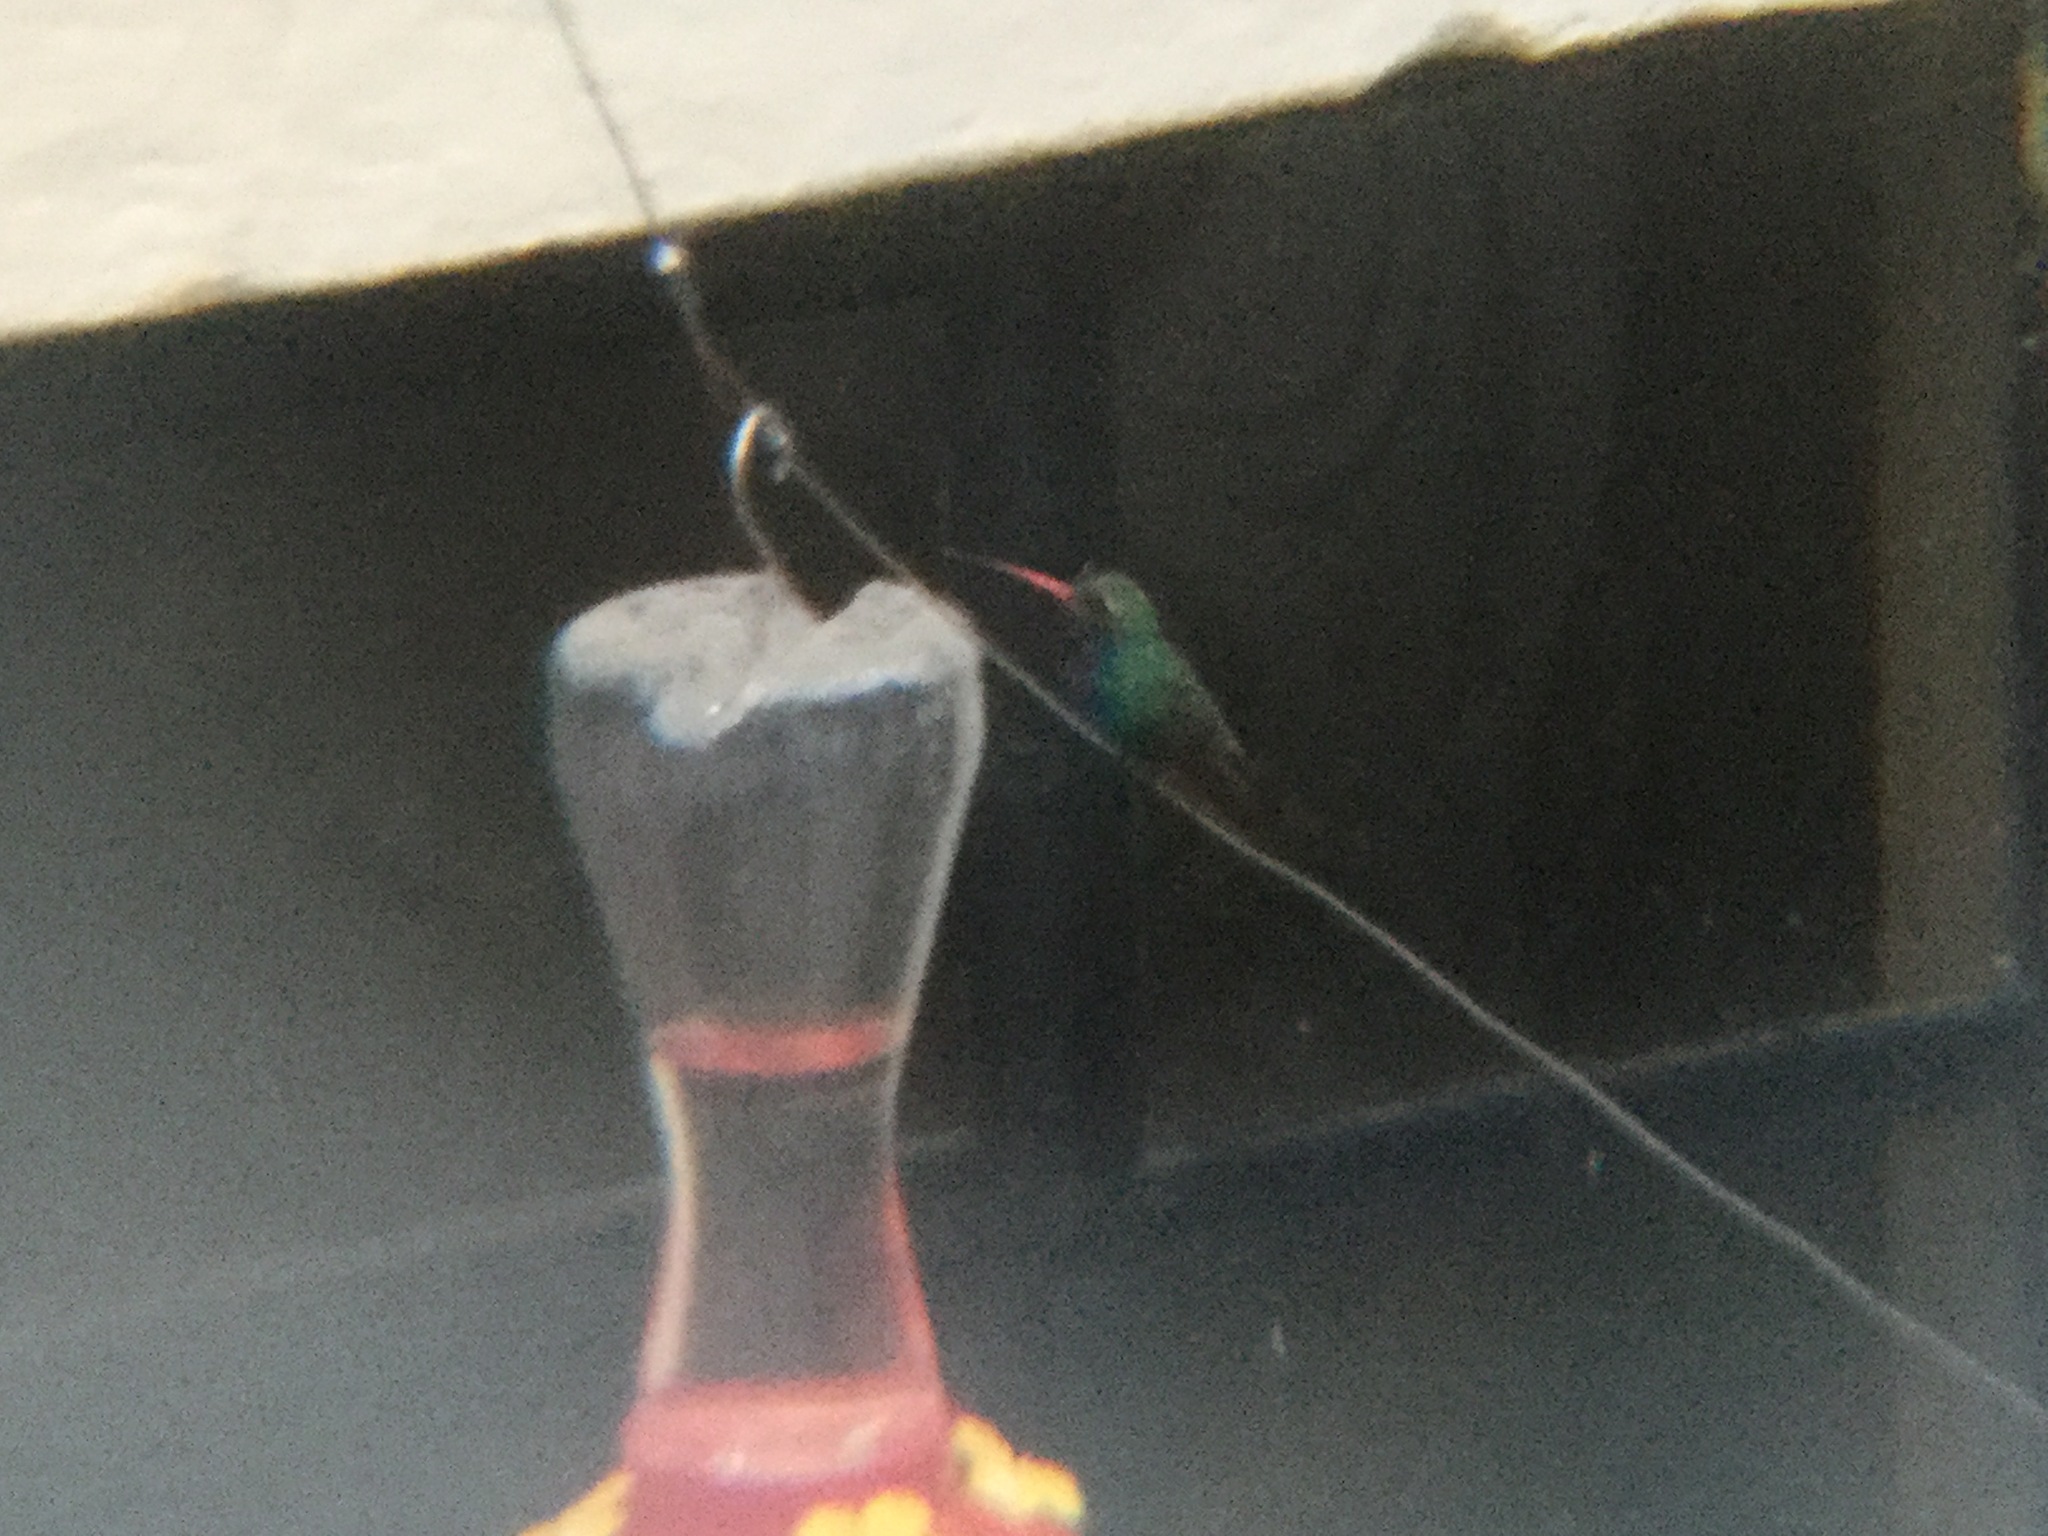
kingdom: Animalia
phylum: Chordata
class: Aves
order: Apodiformes
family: Trochilidae
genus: Cynanthus
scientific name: Cynanthus latirostris
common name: Broad-billed hummingbird
